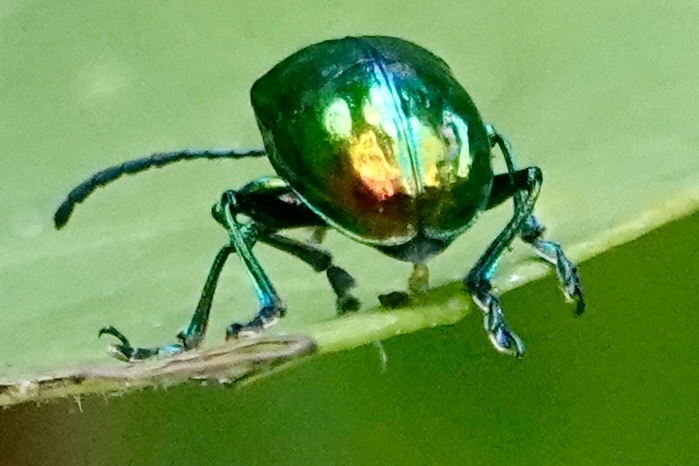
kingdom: Animalia
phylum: Arthropoda
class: Insecta
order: Coleoptera
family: Chrysomelidae
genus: Chrysochus
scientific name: Chrysochus auratus
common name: Dogbane leaf beetle
